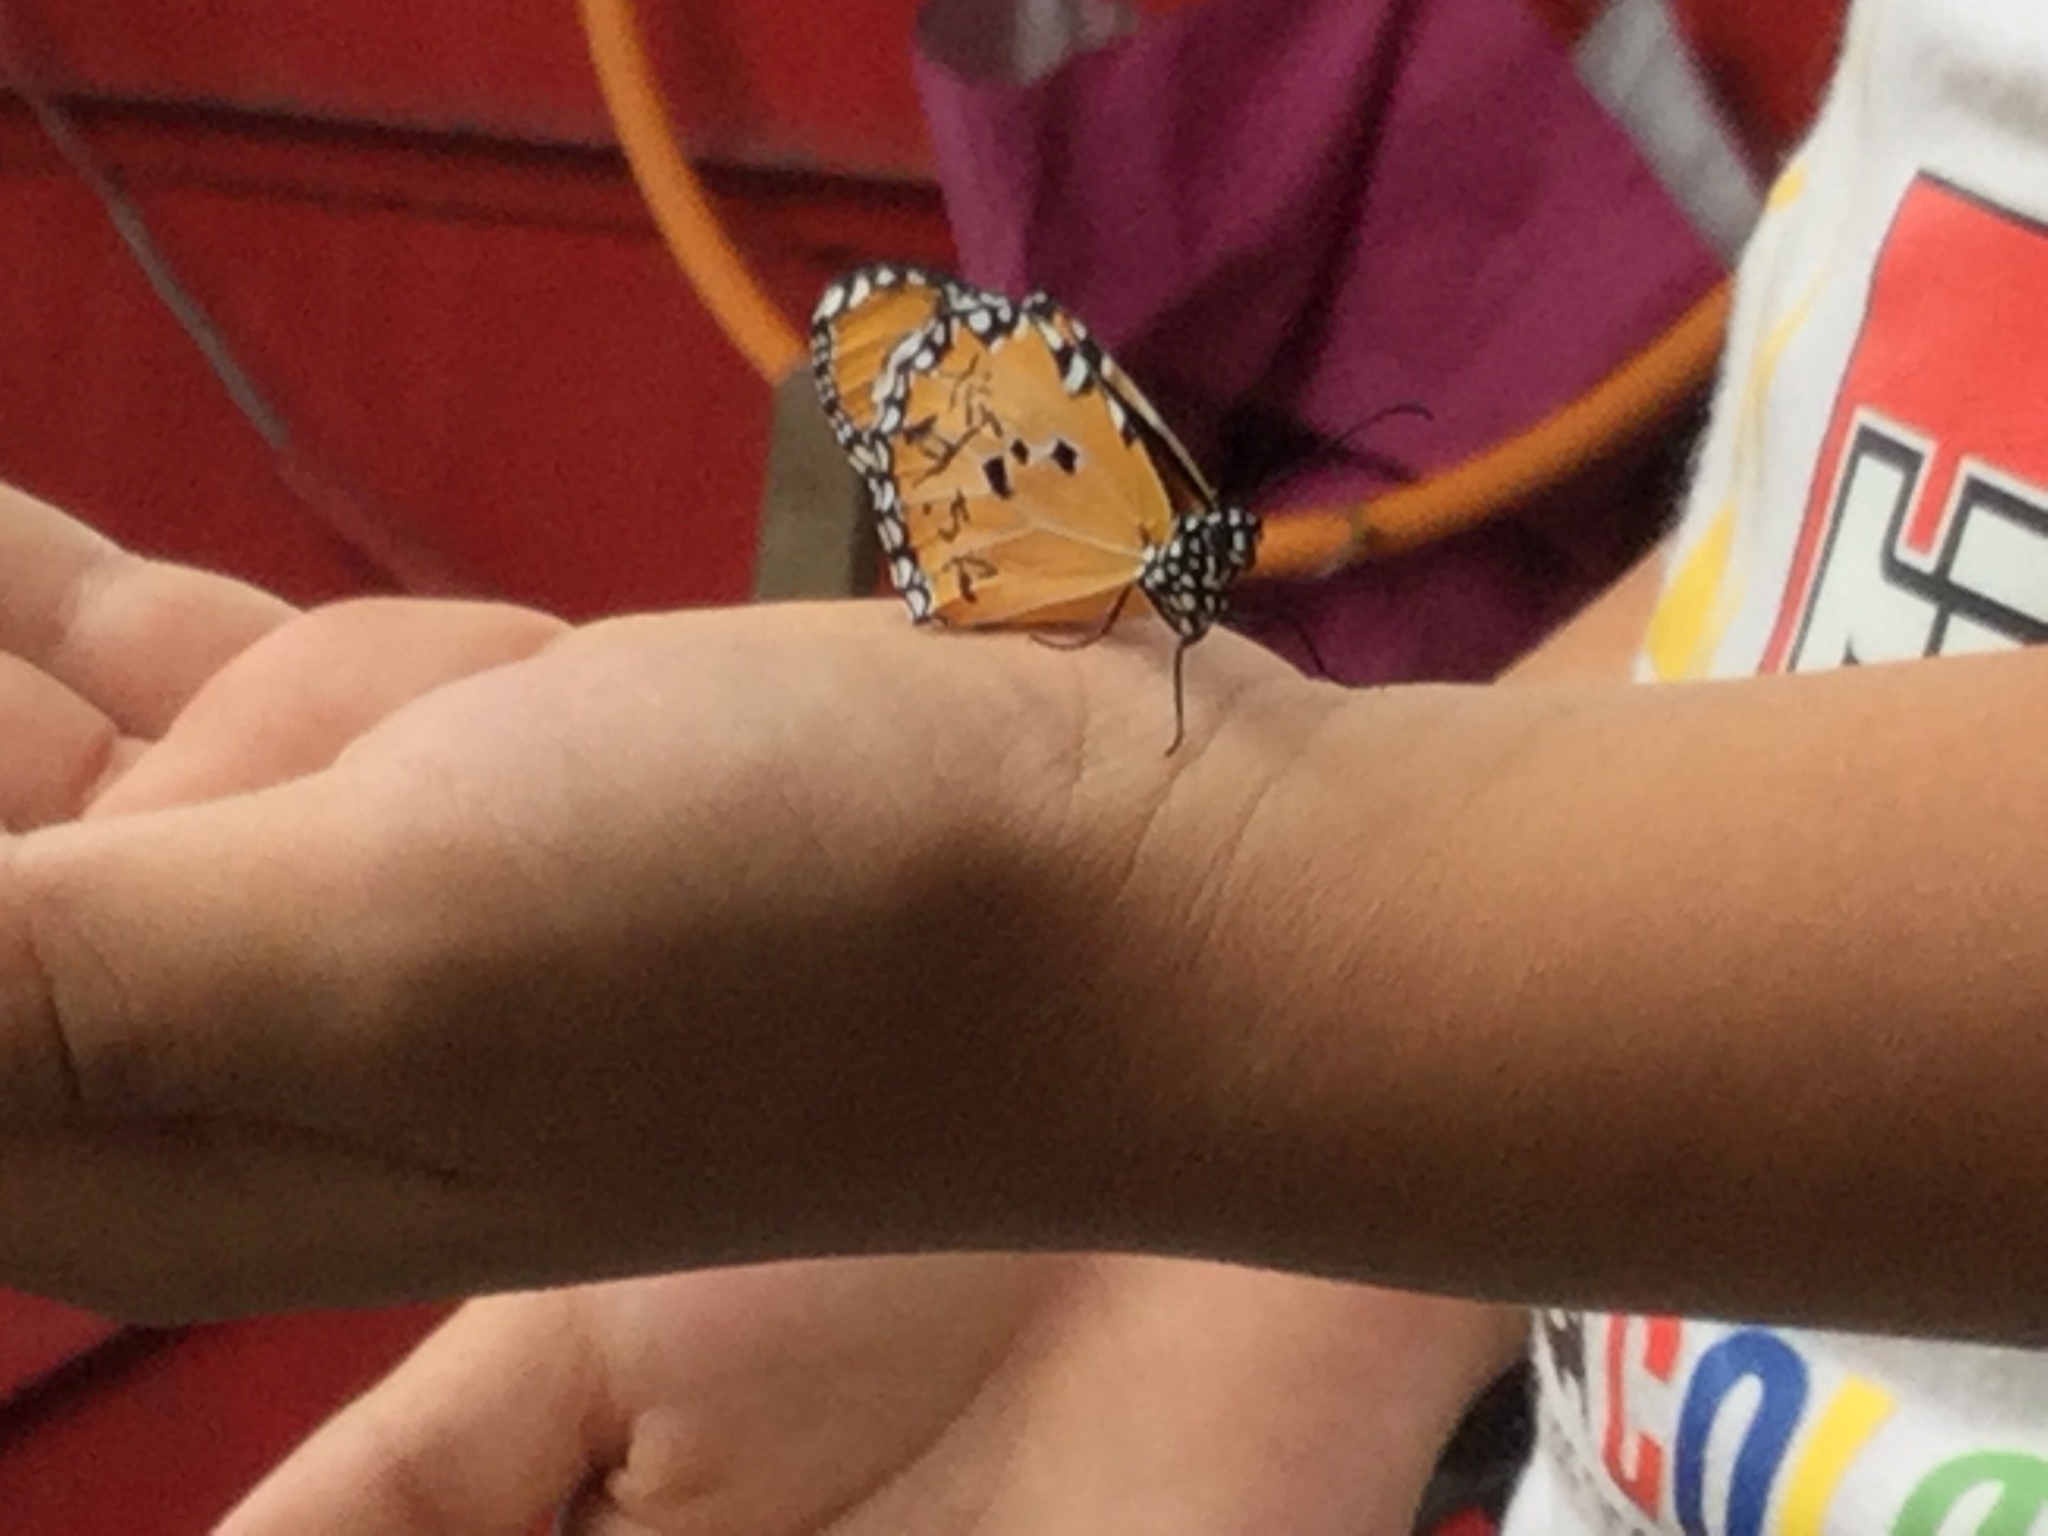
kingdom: Animalia
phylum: Arthropoda
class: Insecta
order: Lepidoptera
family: Nymphalidae
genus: Danaus
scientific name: Danaus chrysippus
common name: Plain tiger
